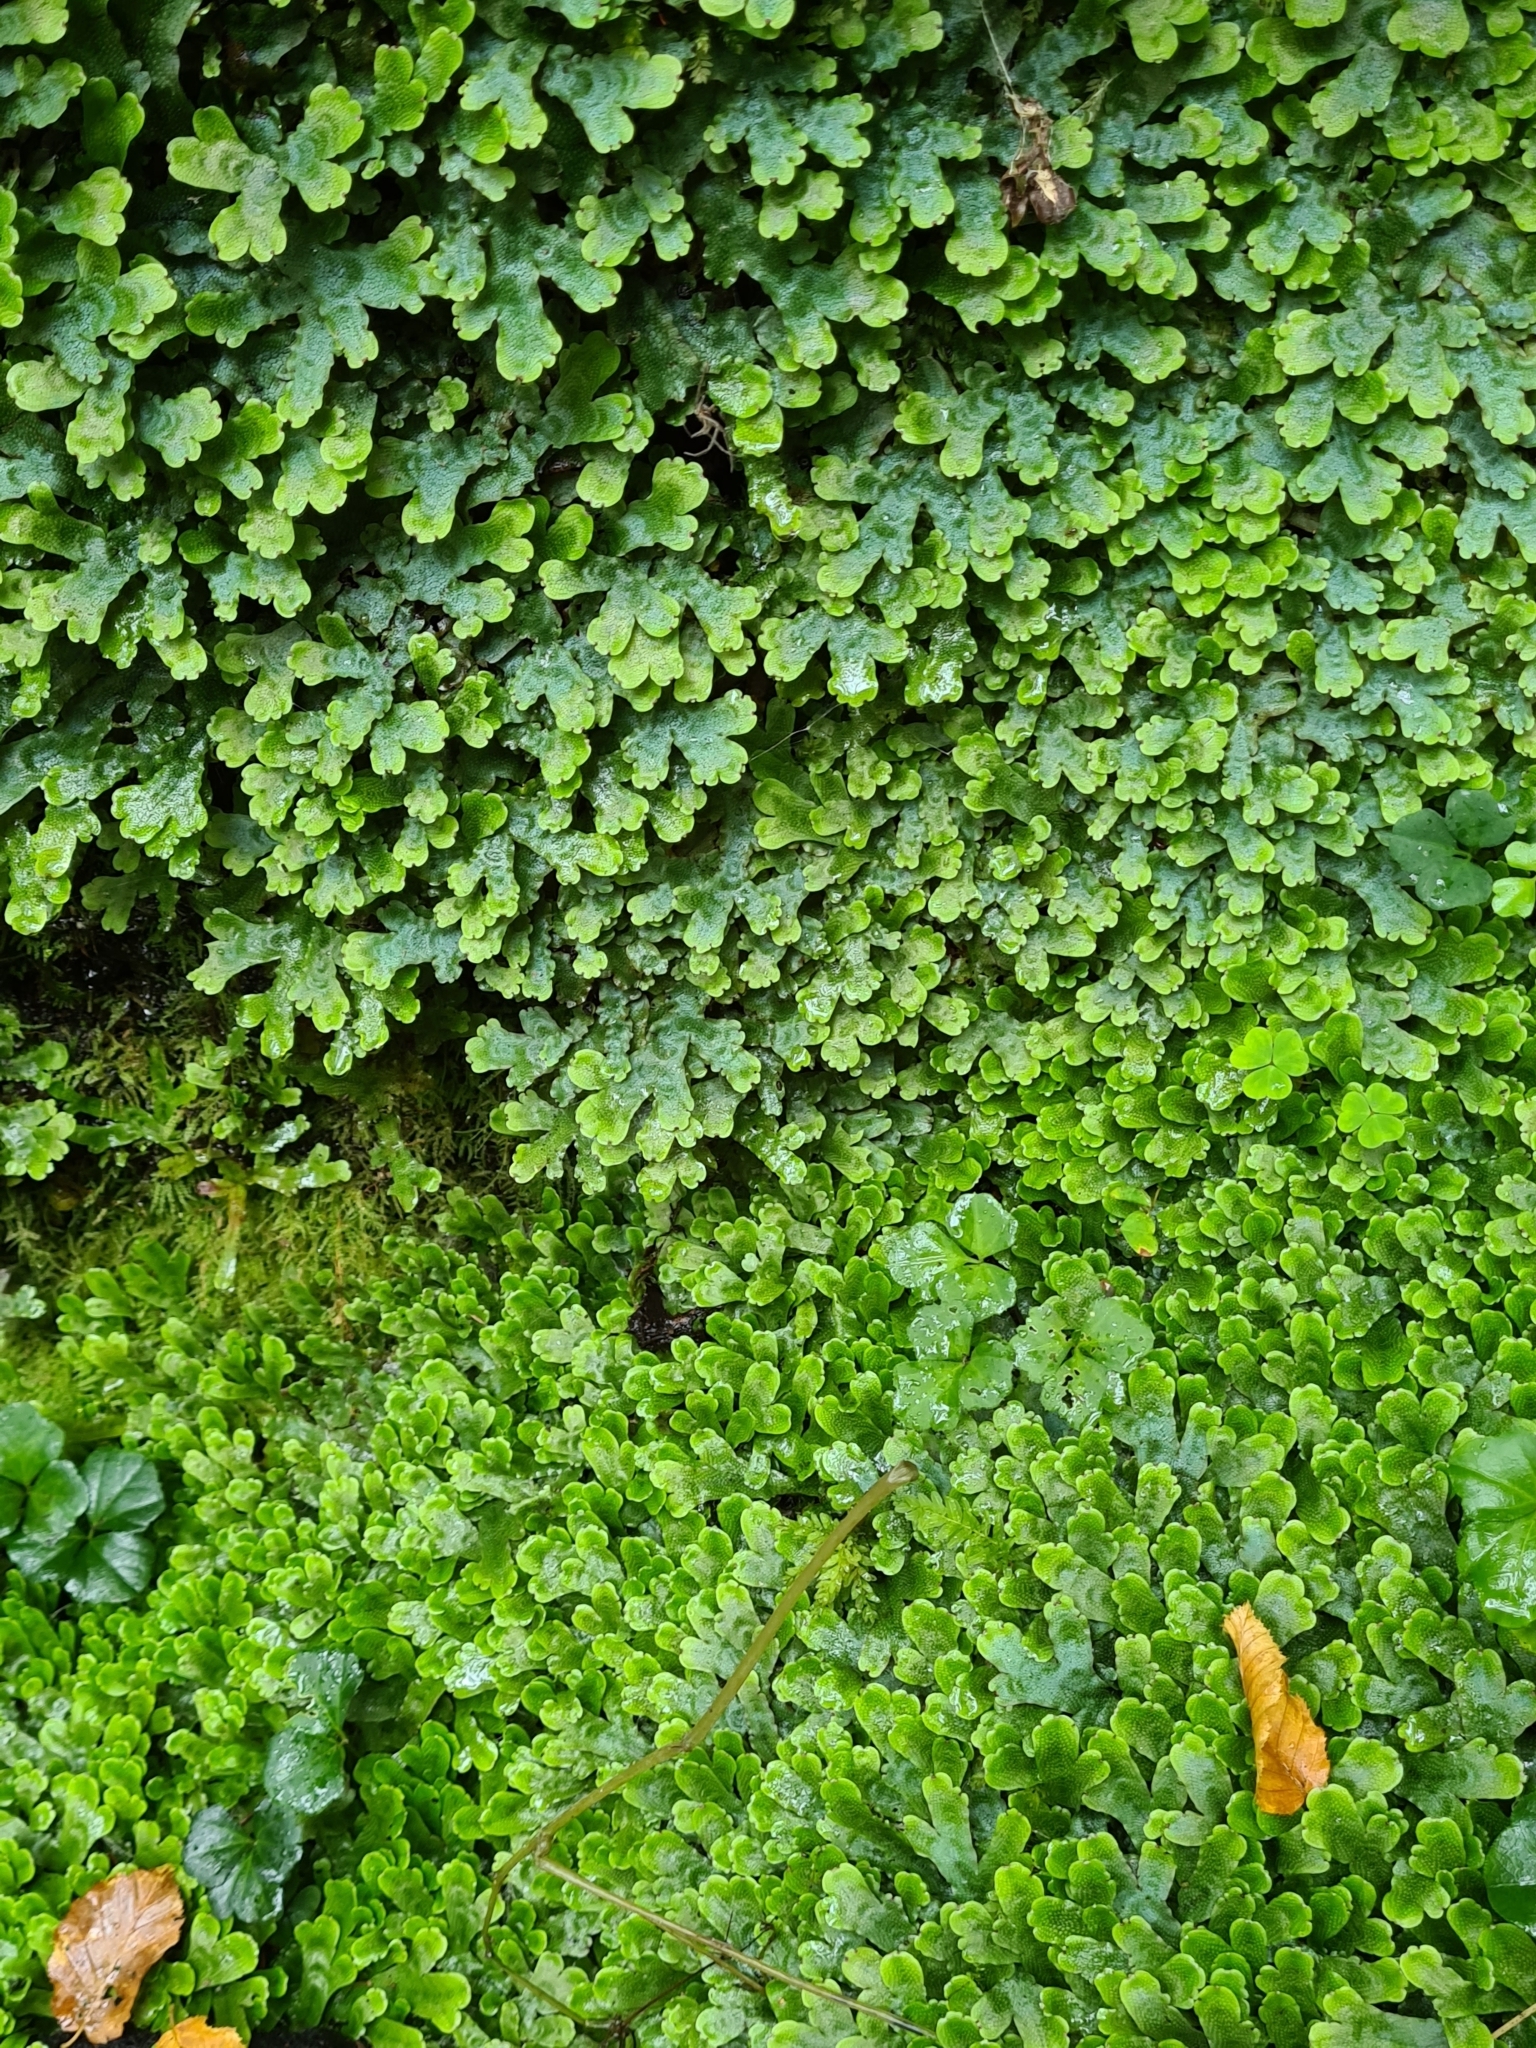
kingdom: Plantae
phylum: Marchantiophyta
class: Marchantiopsida
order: Marchantiales
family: Conocephalaceae
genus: Conocephalum
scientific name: Conocephalum salebrosum
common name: Cat-tongue liverwort
